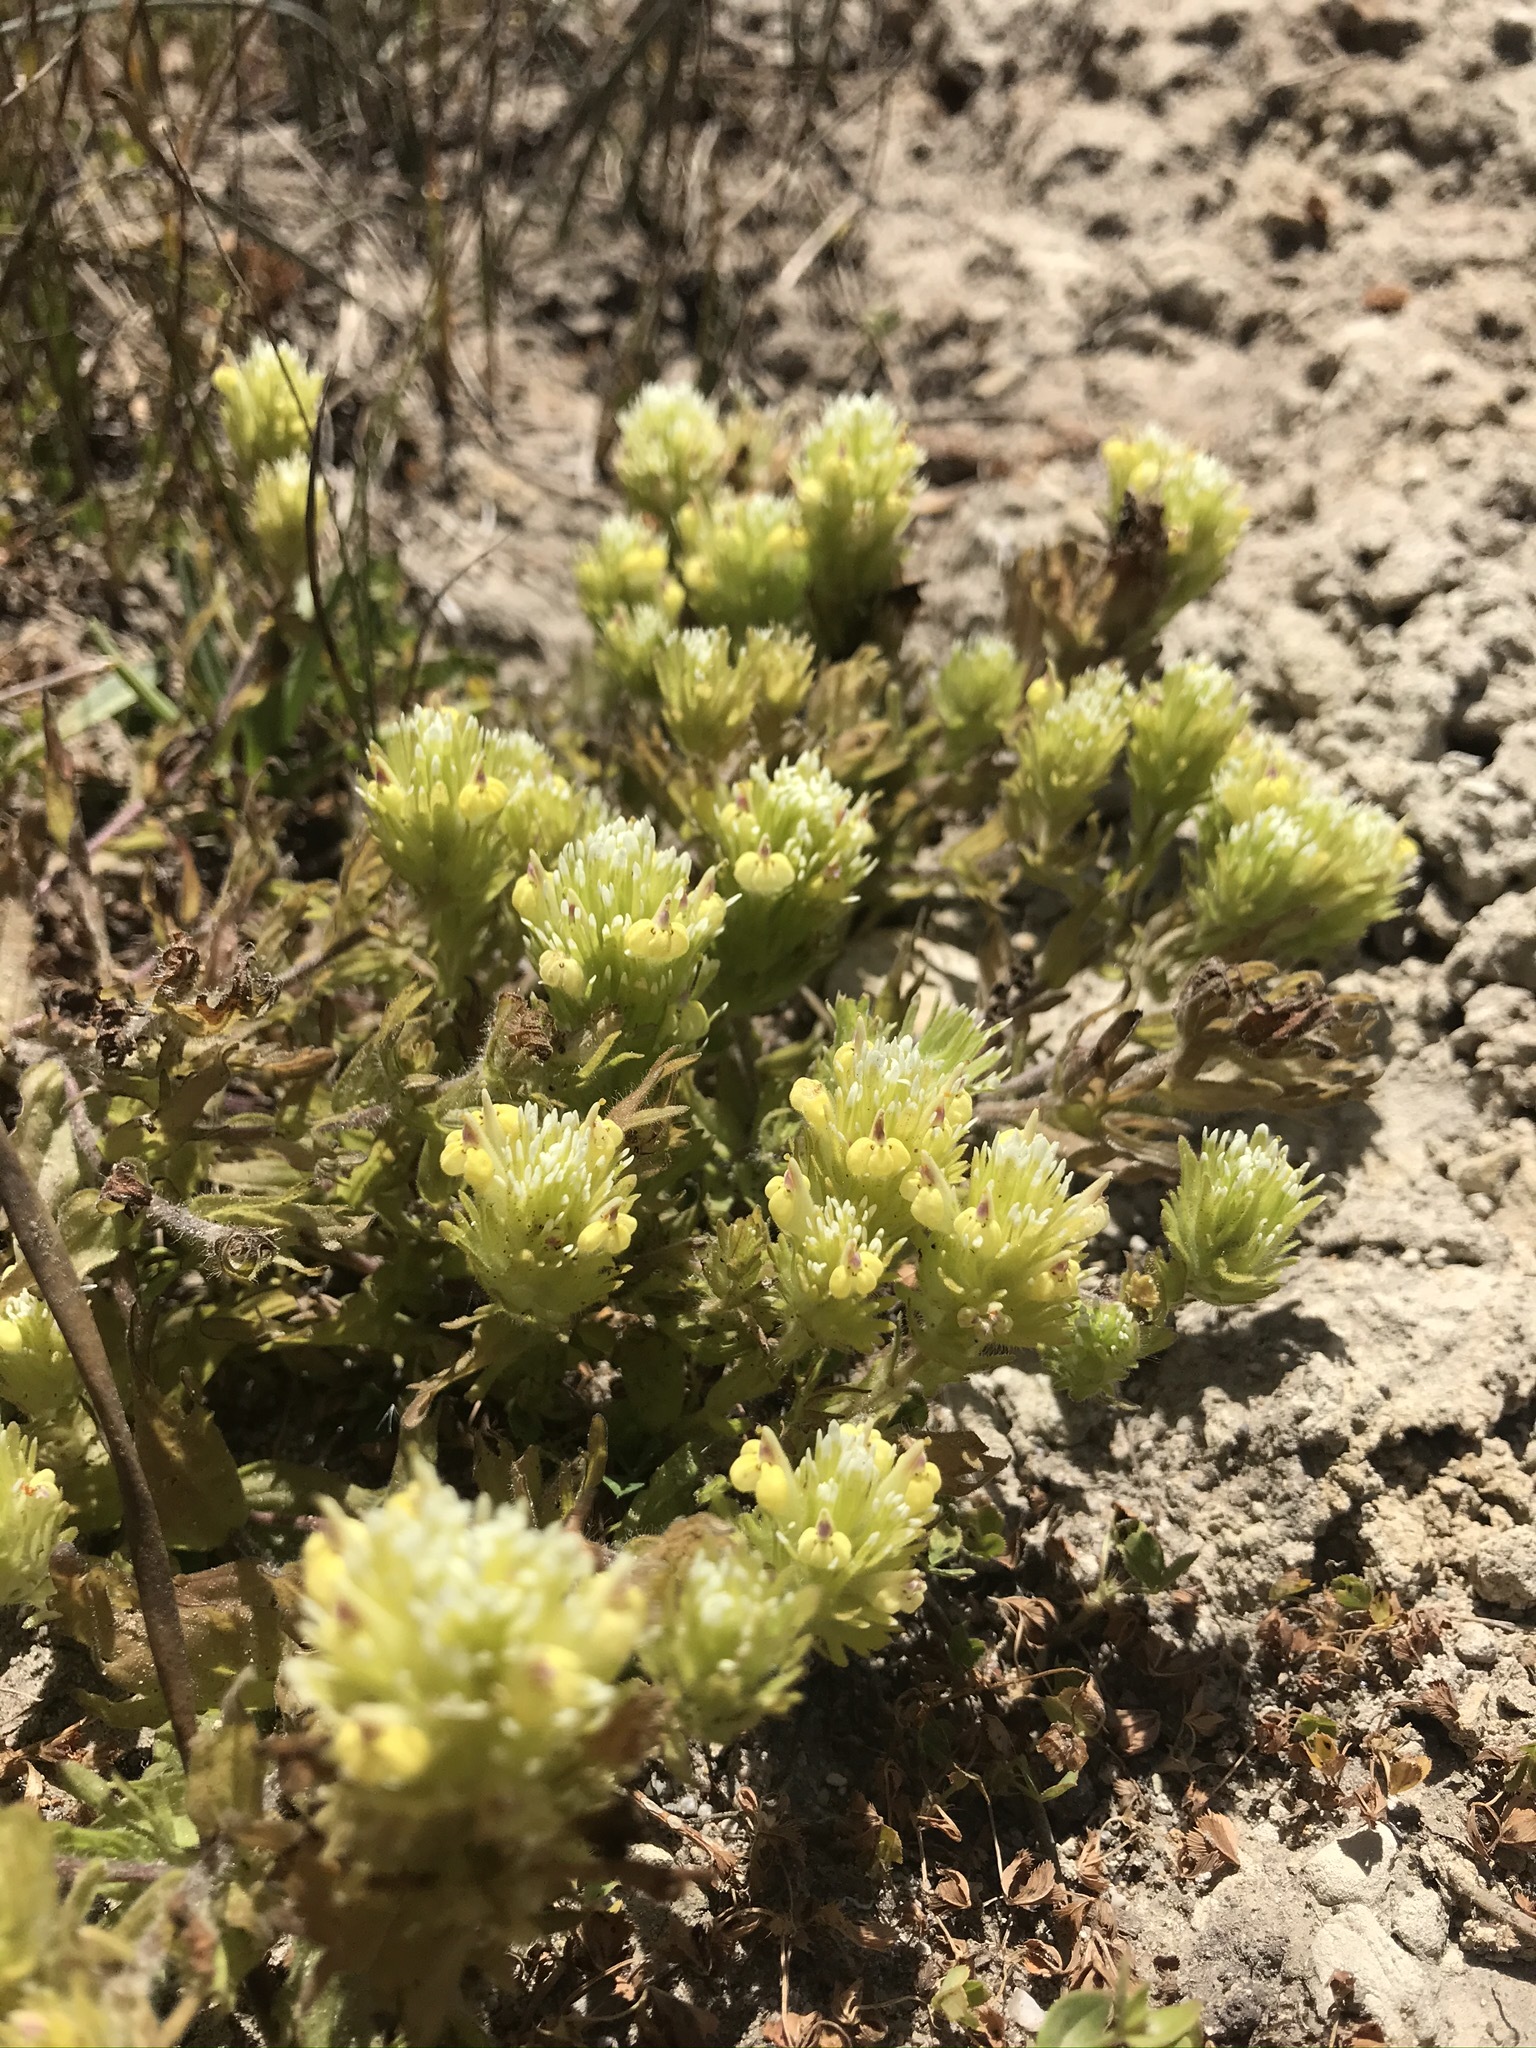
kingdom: Plantae
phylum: Tracheophyta
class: Magnoliopsida
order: Lamiales
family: Orobanchaceae
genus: Castilleja
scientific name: Castilleja ambigua
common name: Johnny-nip
